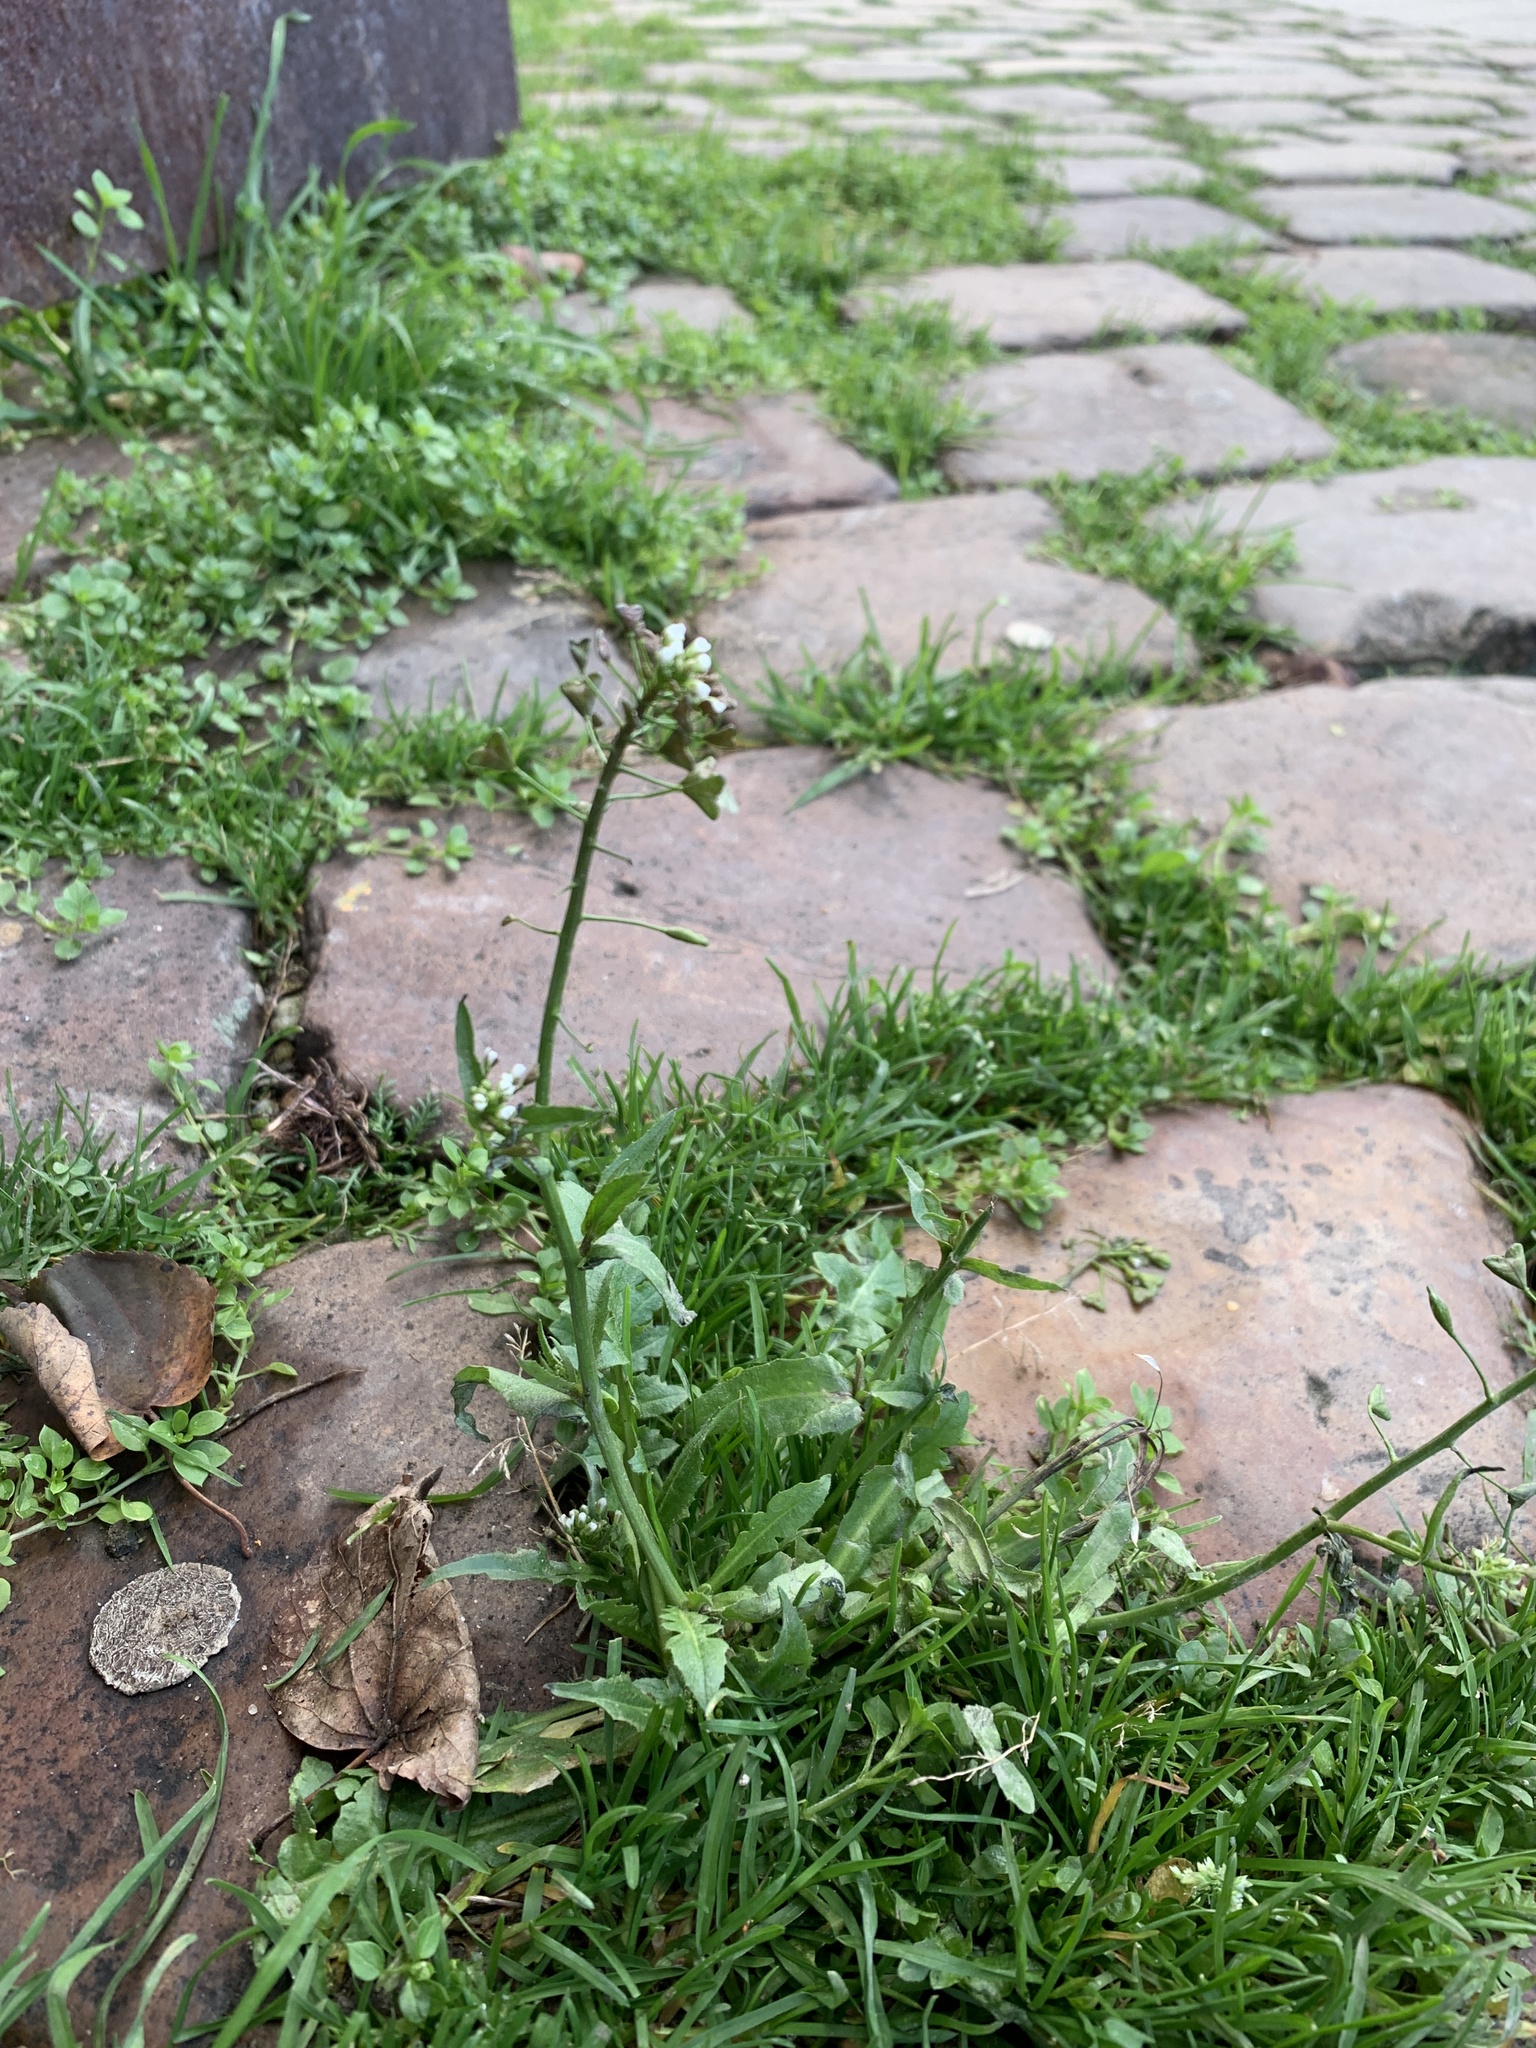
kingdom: Plantae
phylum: Tracheophyta
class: Magnoliopsida
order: Brassicales
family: Brassicaceae
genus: Capsella
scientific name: Capsella bursa-pastoris
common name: Shepherd's purse
